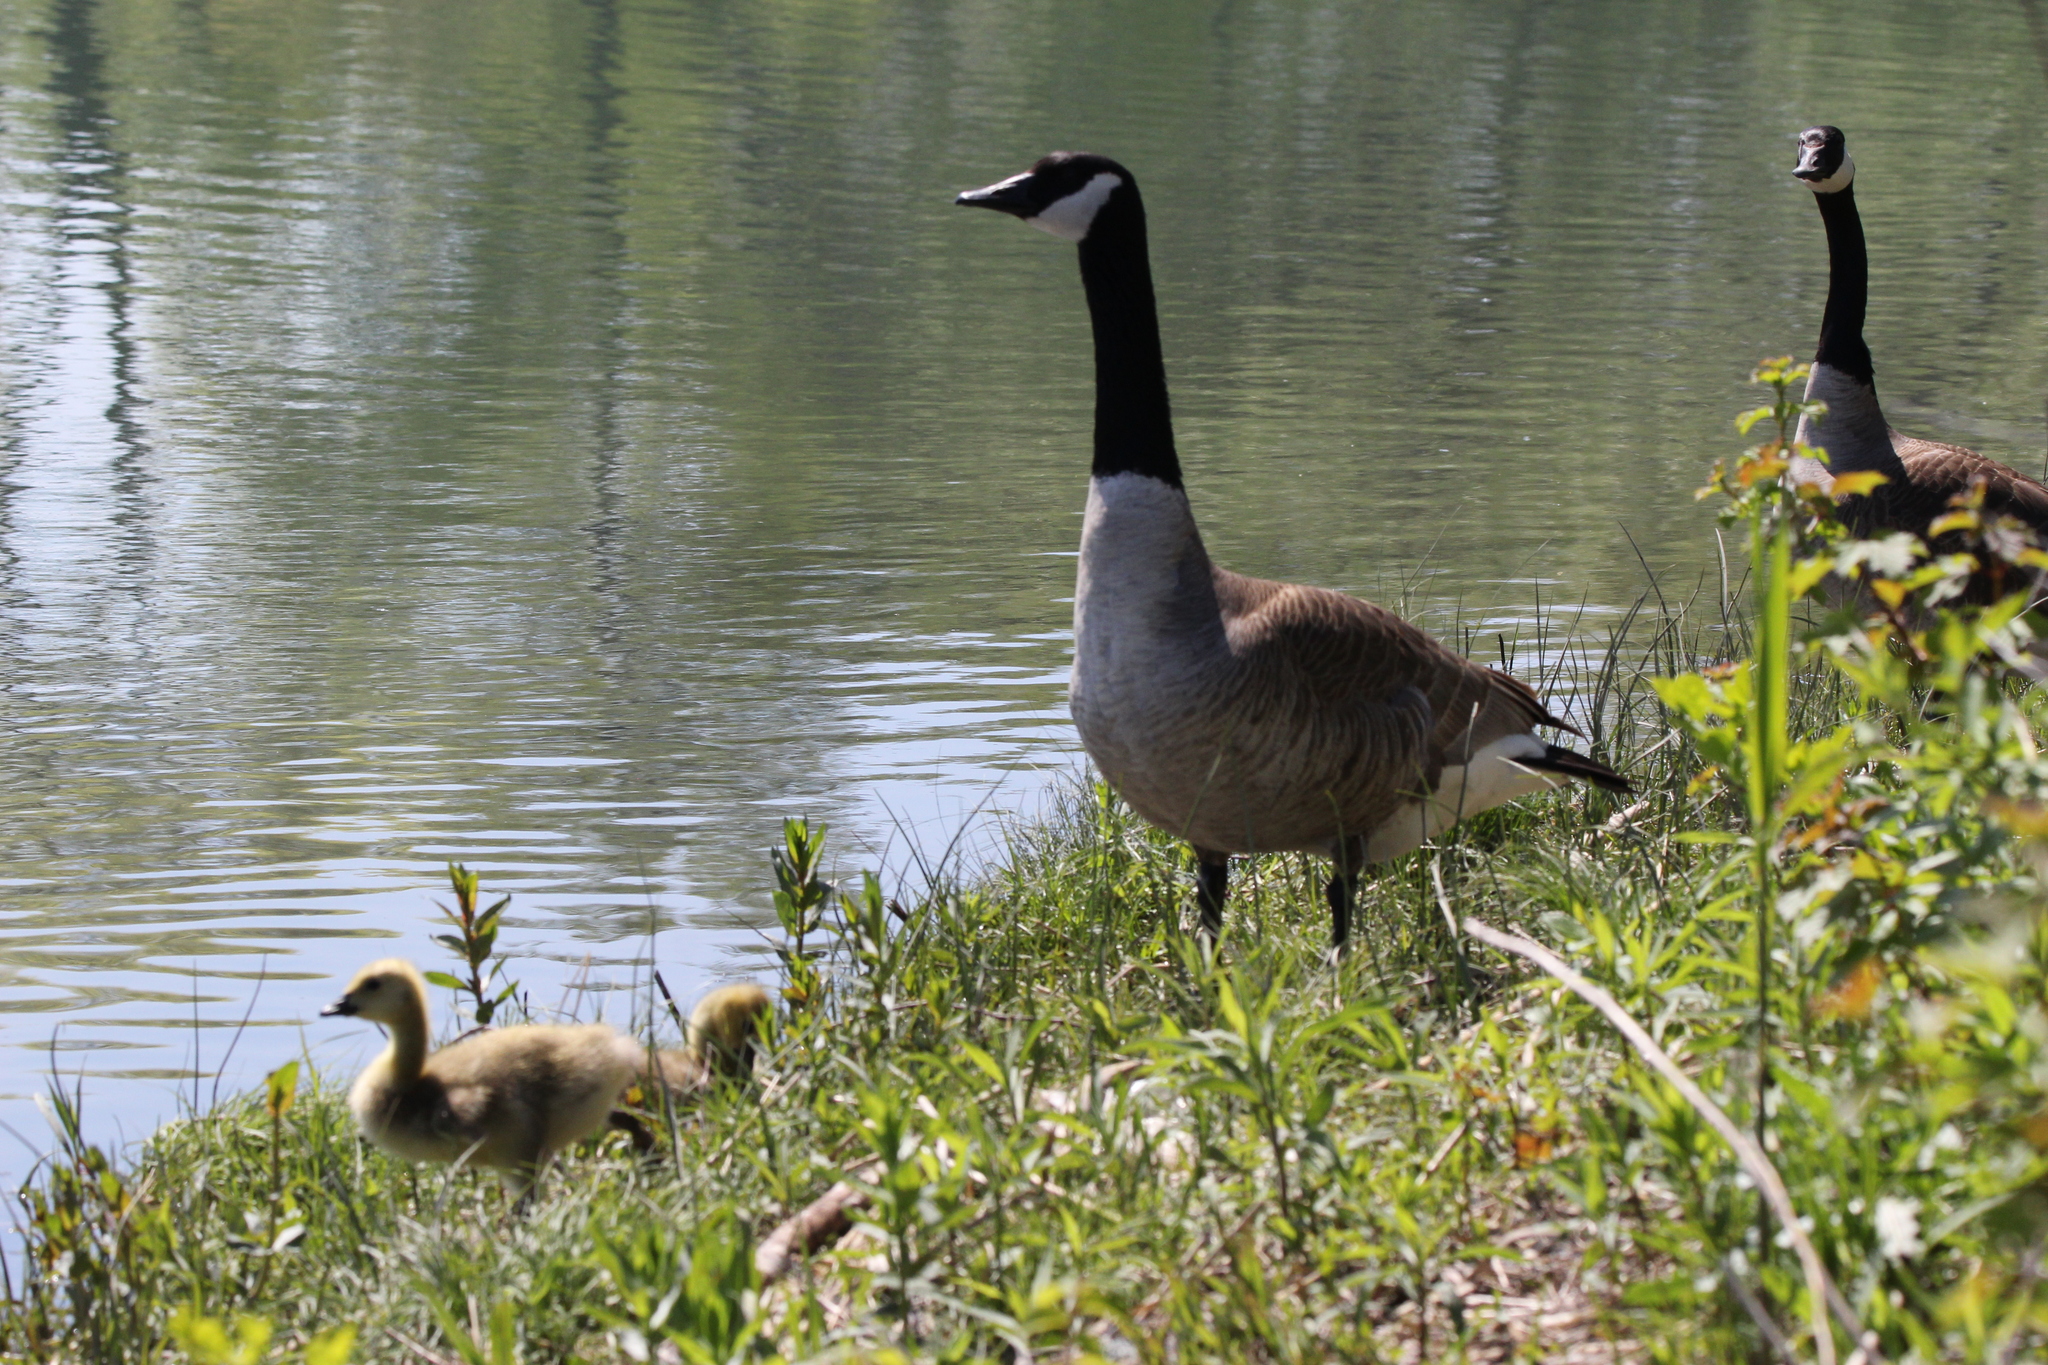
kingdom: Animalia
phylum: Chordata
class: Aves
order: Anseriformes
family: Anatidae
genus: Branta
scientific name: Branta canadensis
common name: Canada goose
